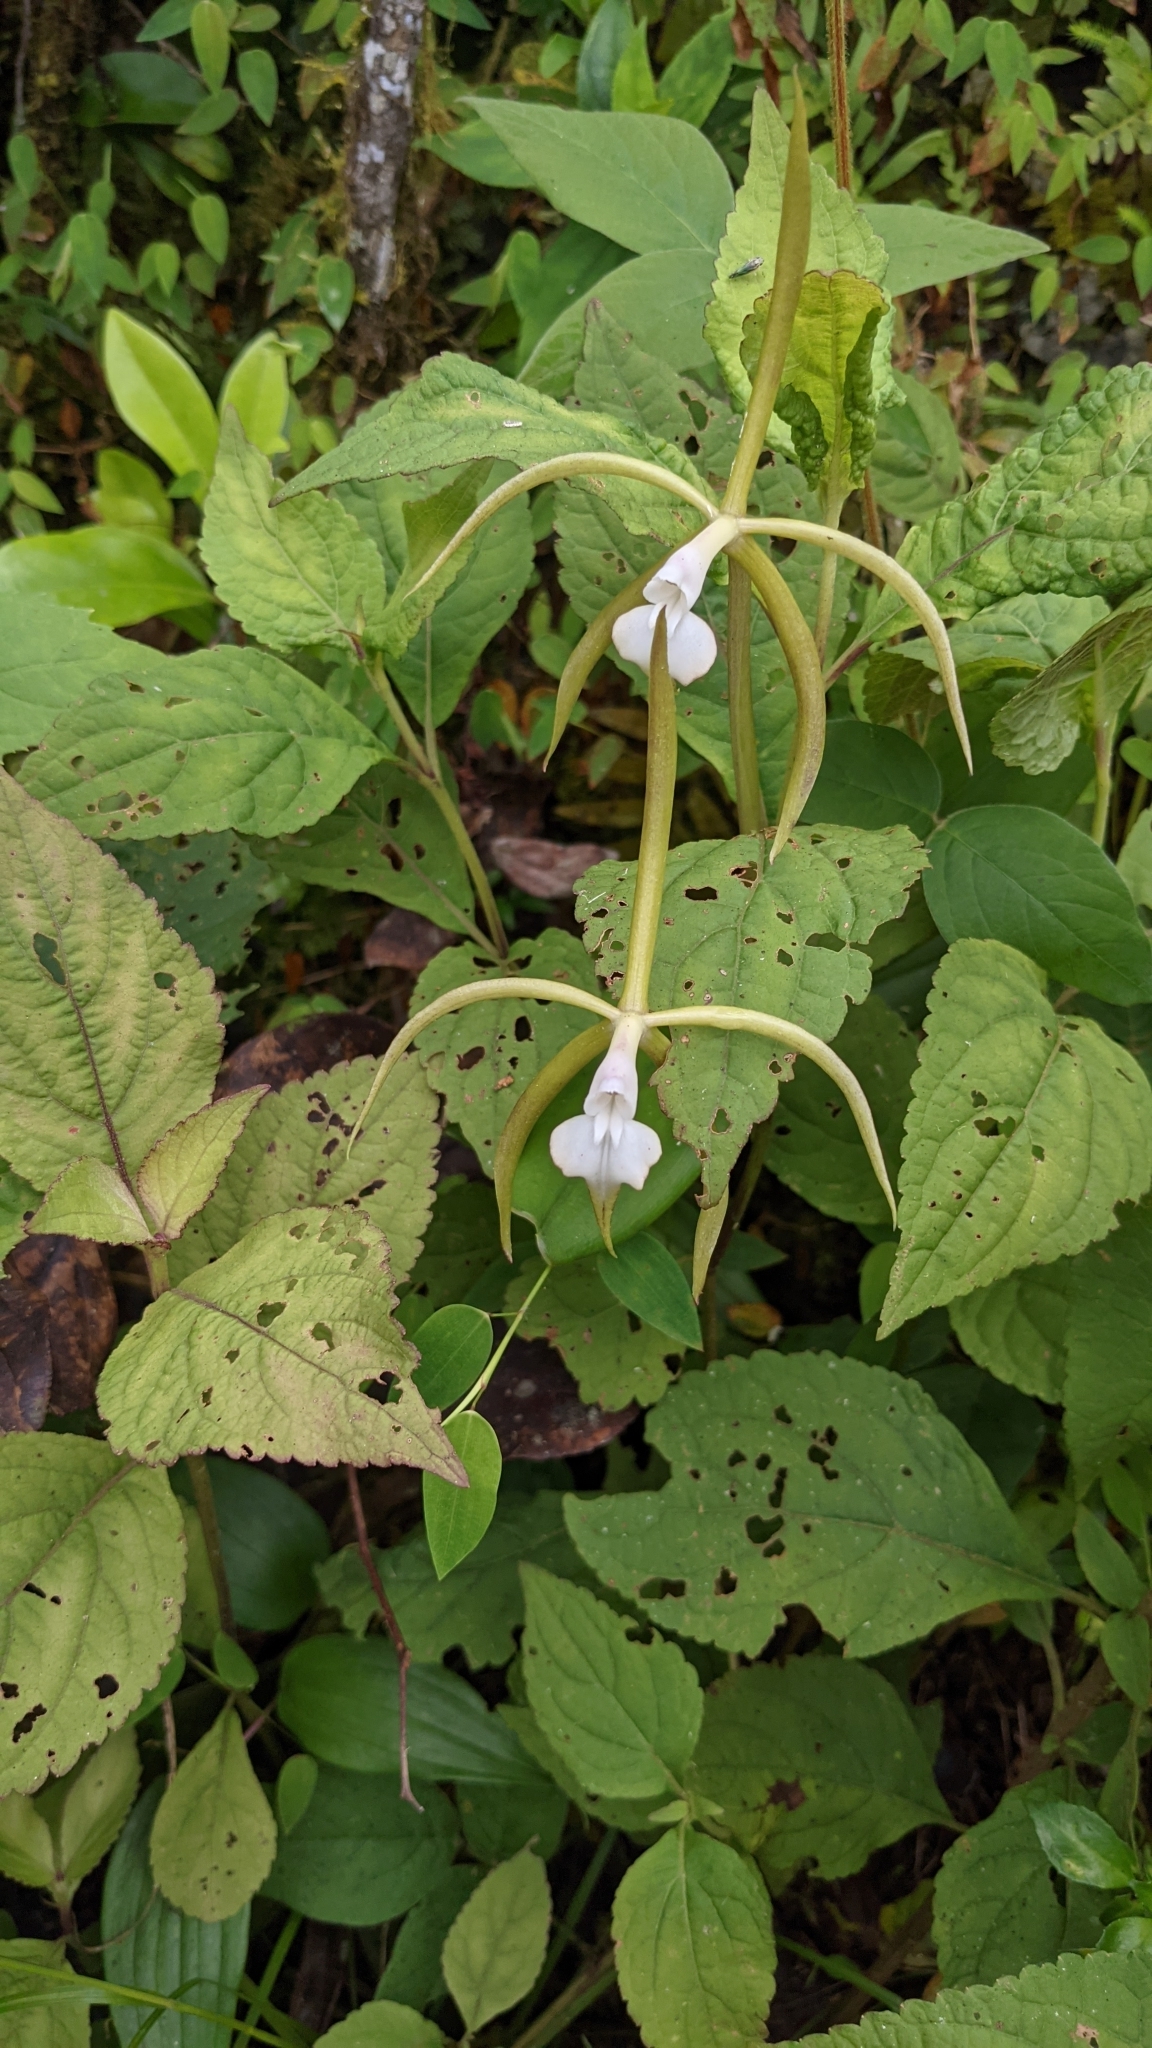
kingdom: Plantae
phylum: Tracheophyta
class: Liliopsida
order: Asparagales
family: Orchidaceae
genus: Epidendrum
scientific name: Epidendrum lacustre
